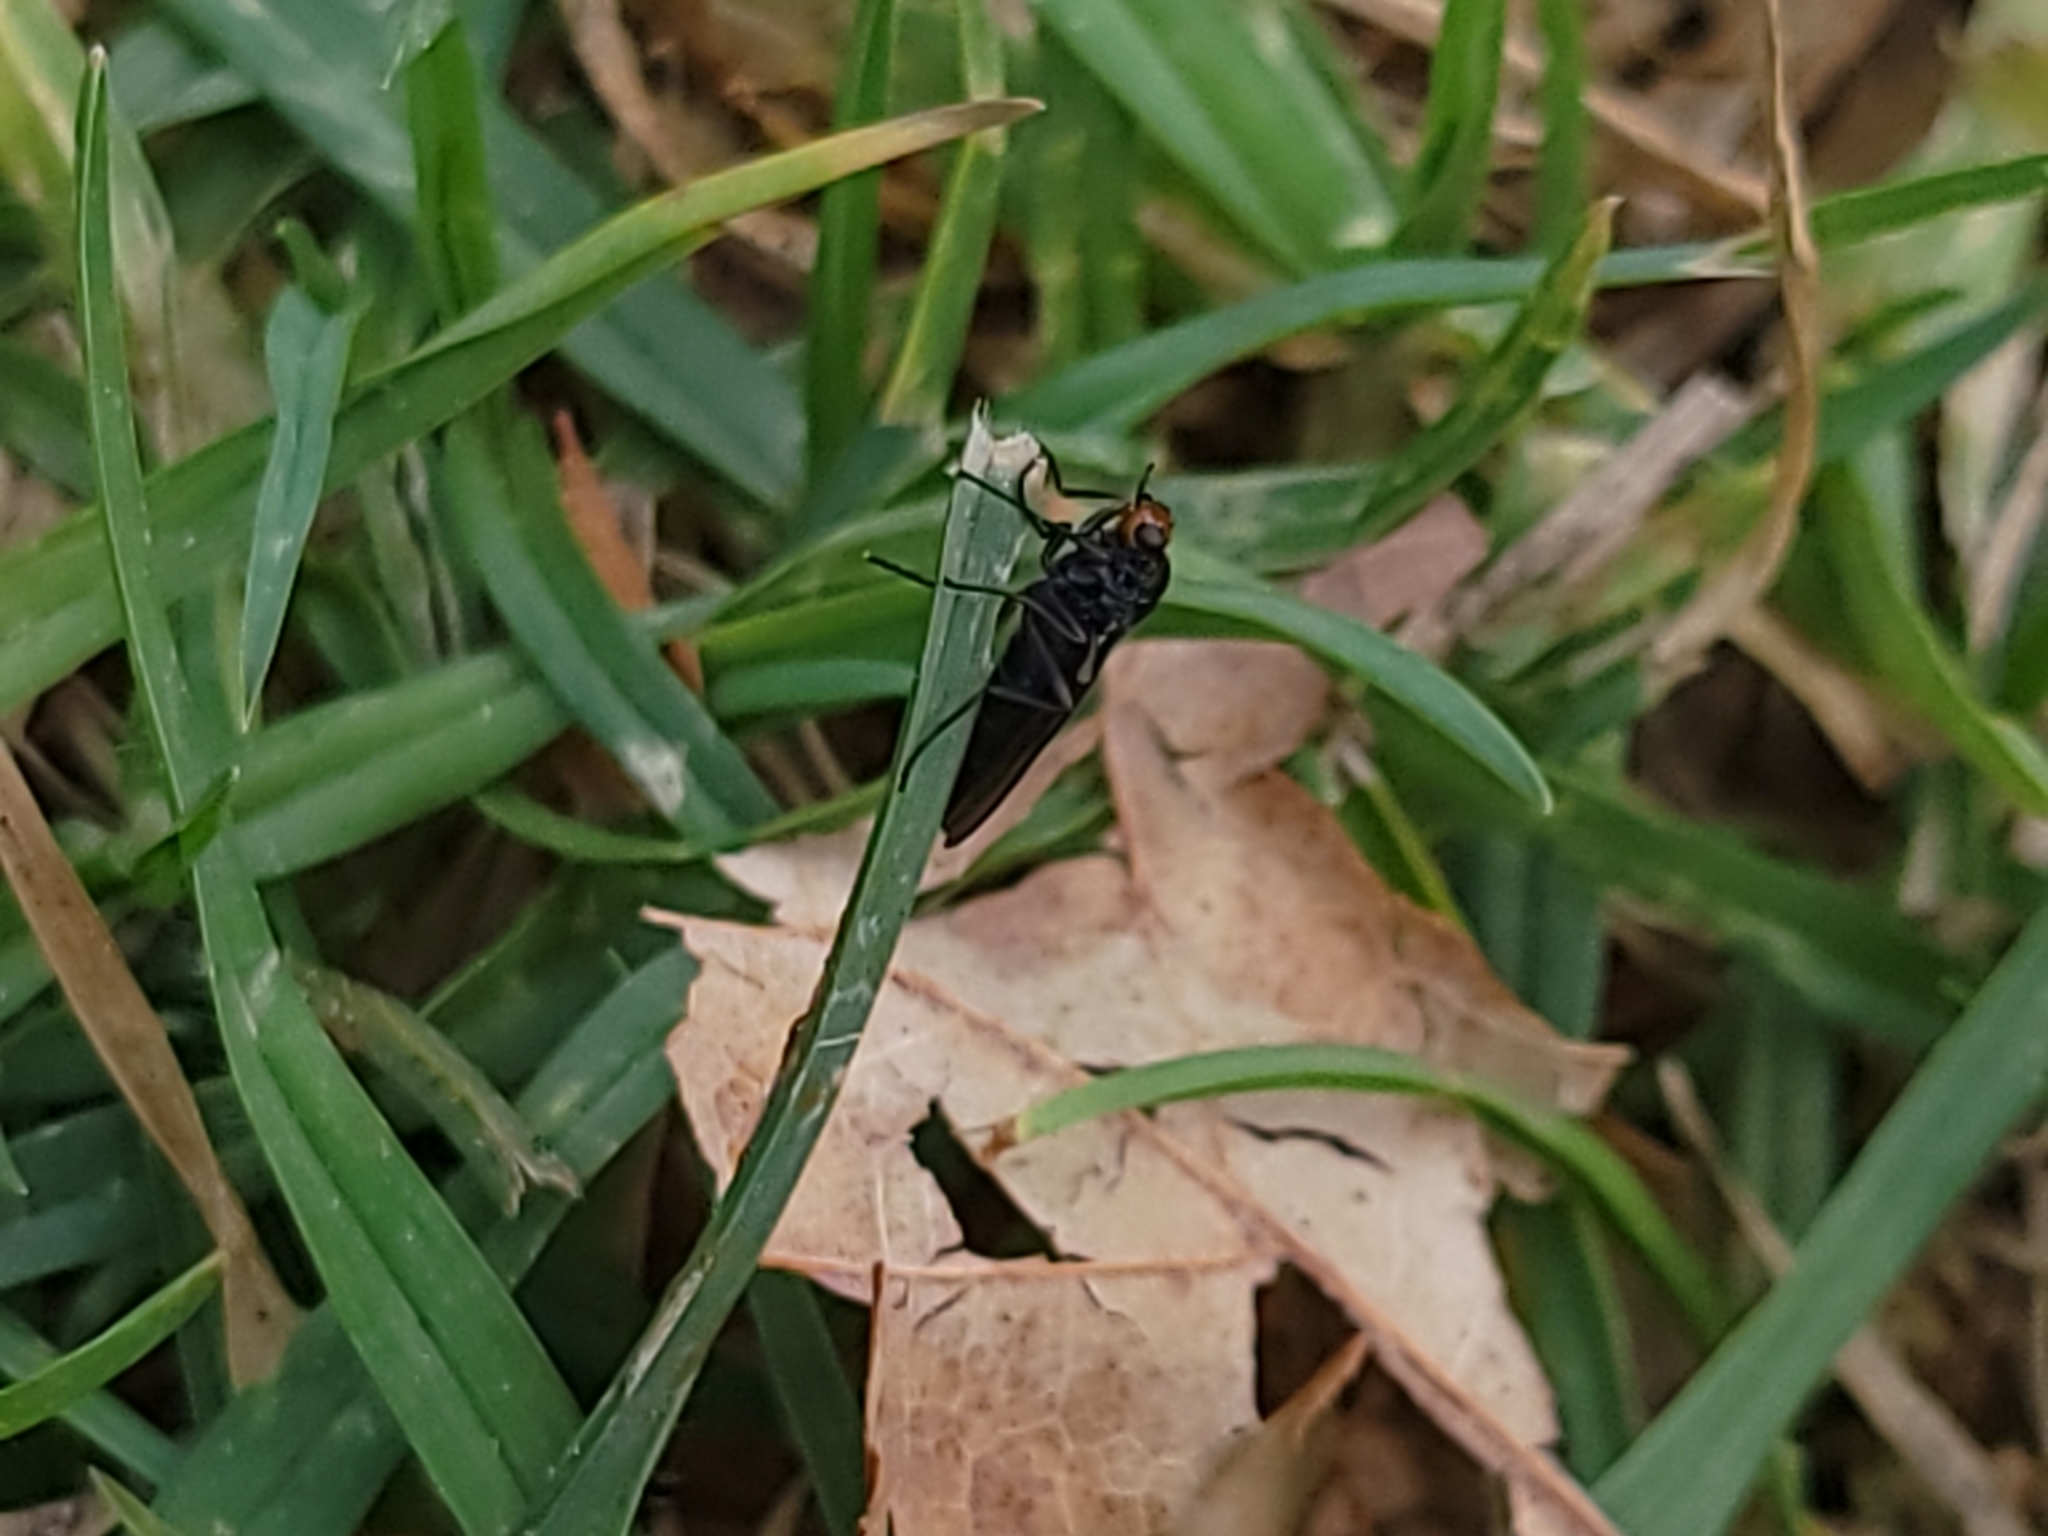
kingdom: Animalia
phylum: Arthropoda
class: Insecta
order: Diptera
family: Stratiomyidae
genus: Inopus
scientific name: Inopus rubriceps
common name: Soldier fly
